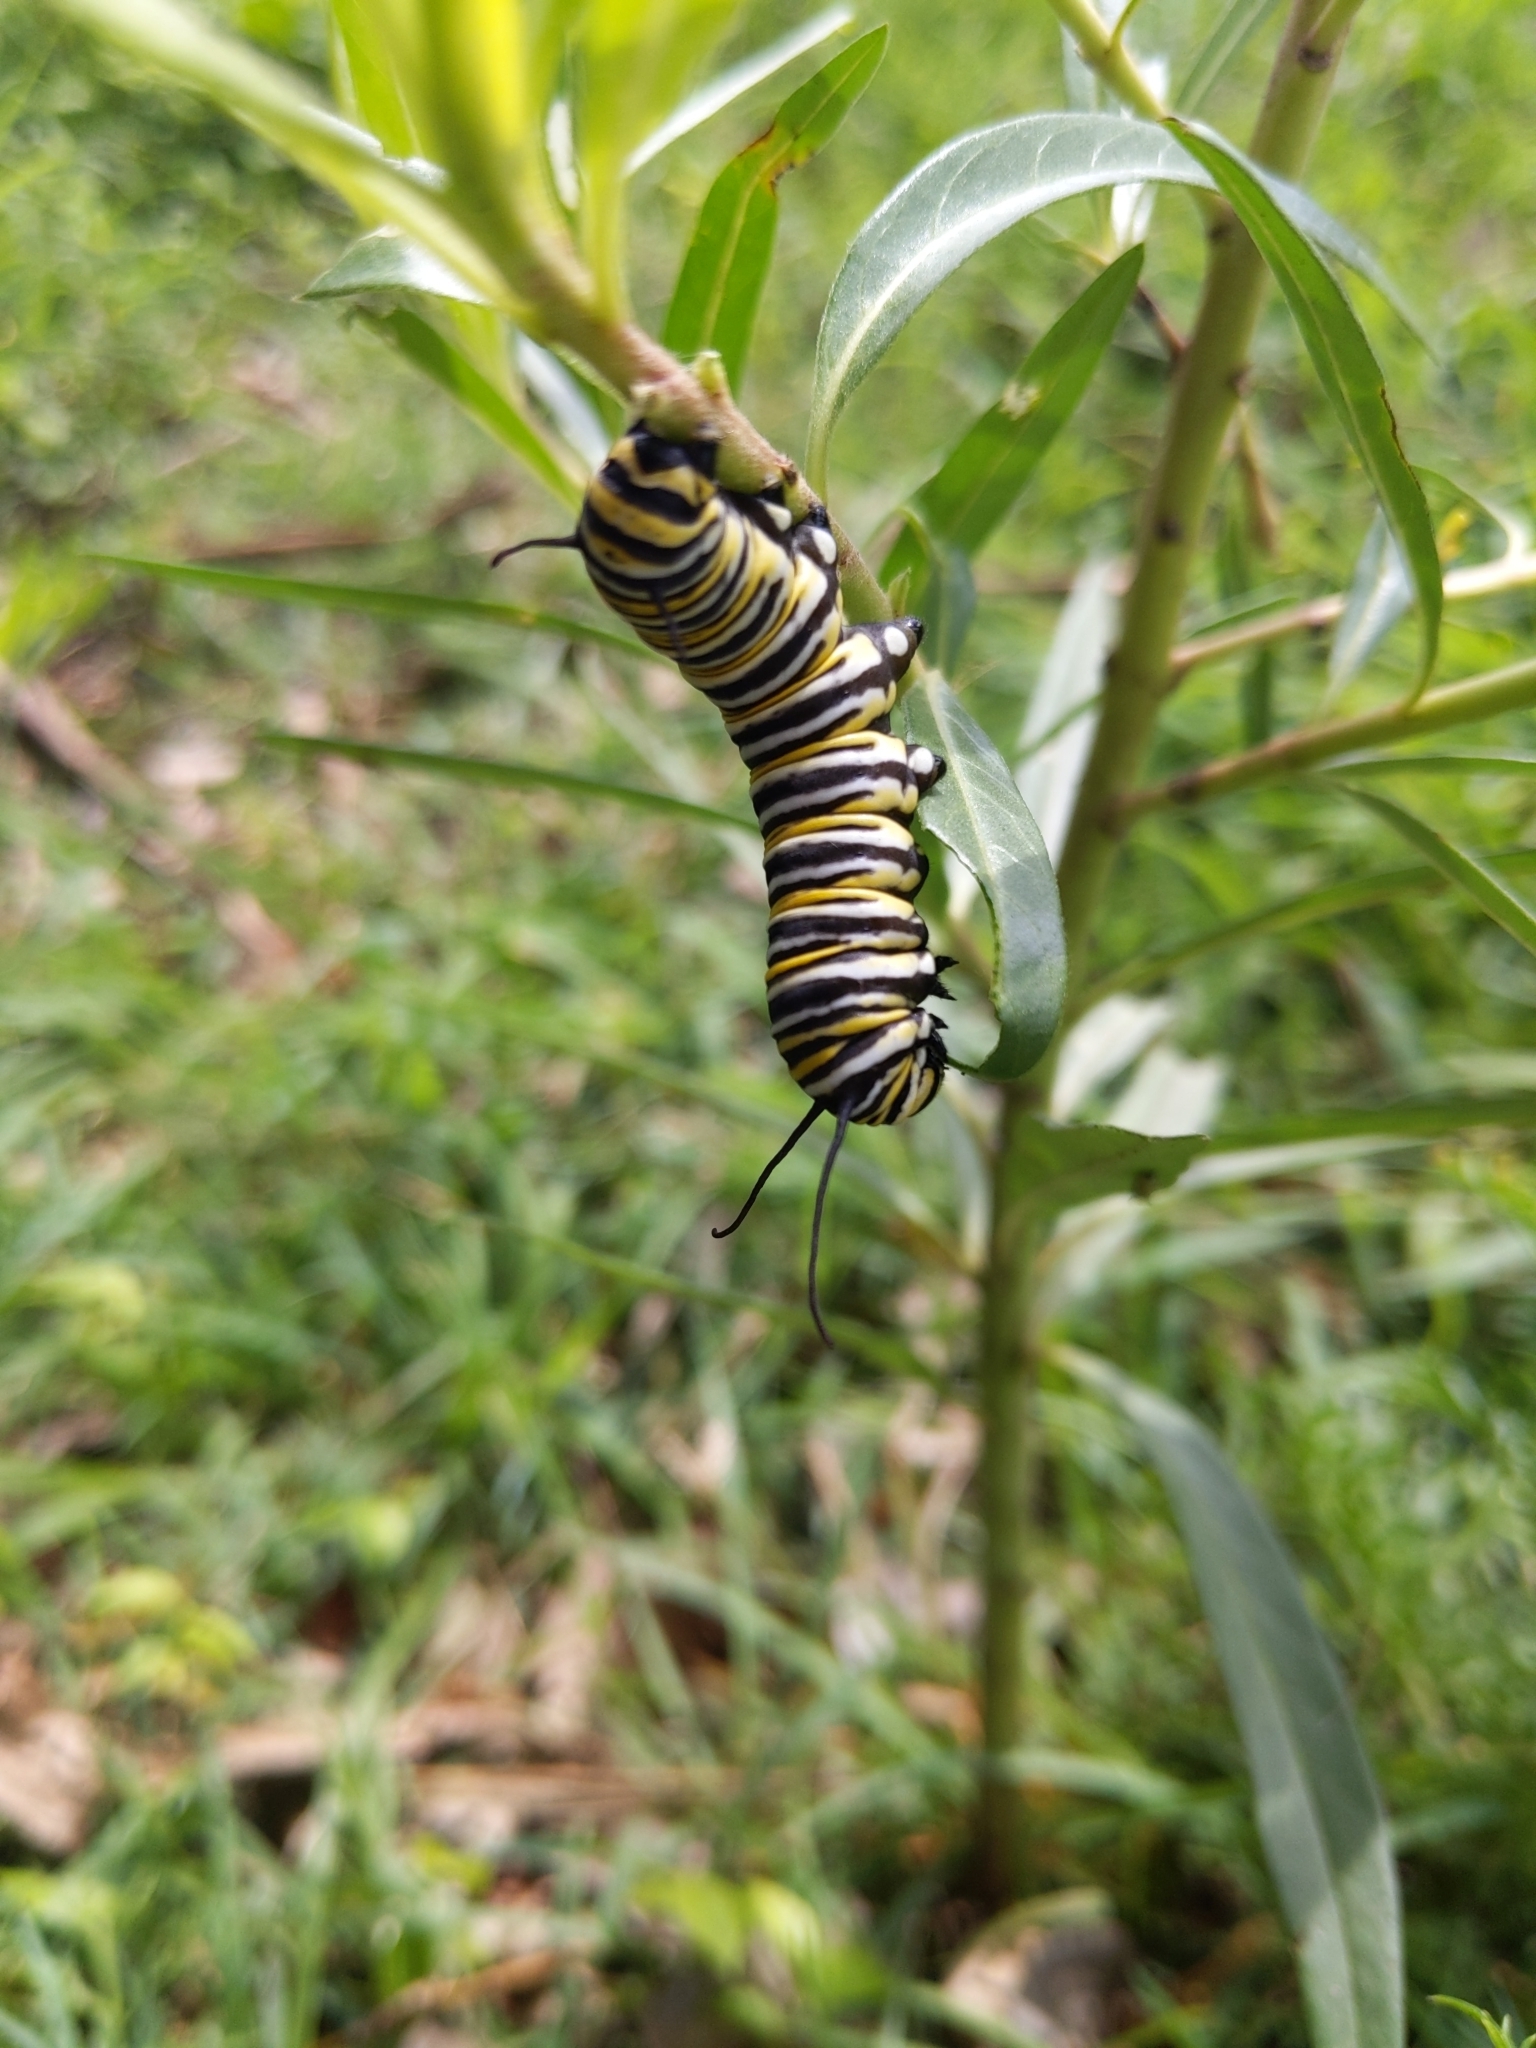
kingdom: Animalia
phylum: Arthropoda
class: Insecta
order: Lepidoptera
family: Nymphalidae
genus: Danaus
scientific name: Danaus plexippus
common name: Monarch
